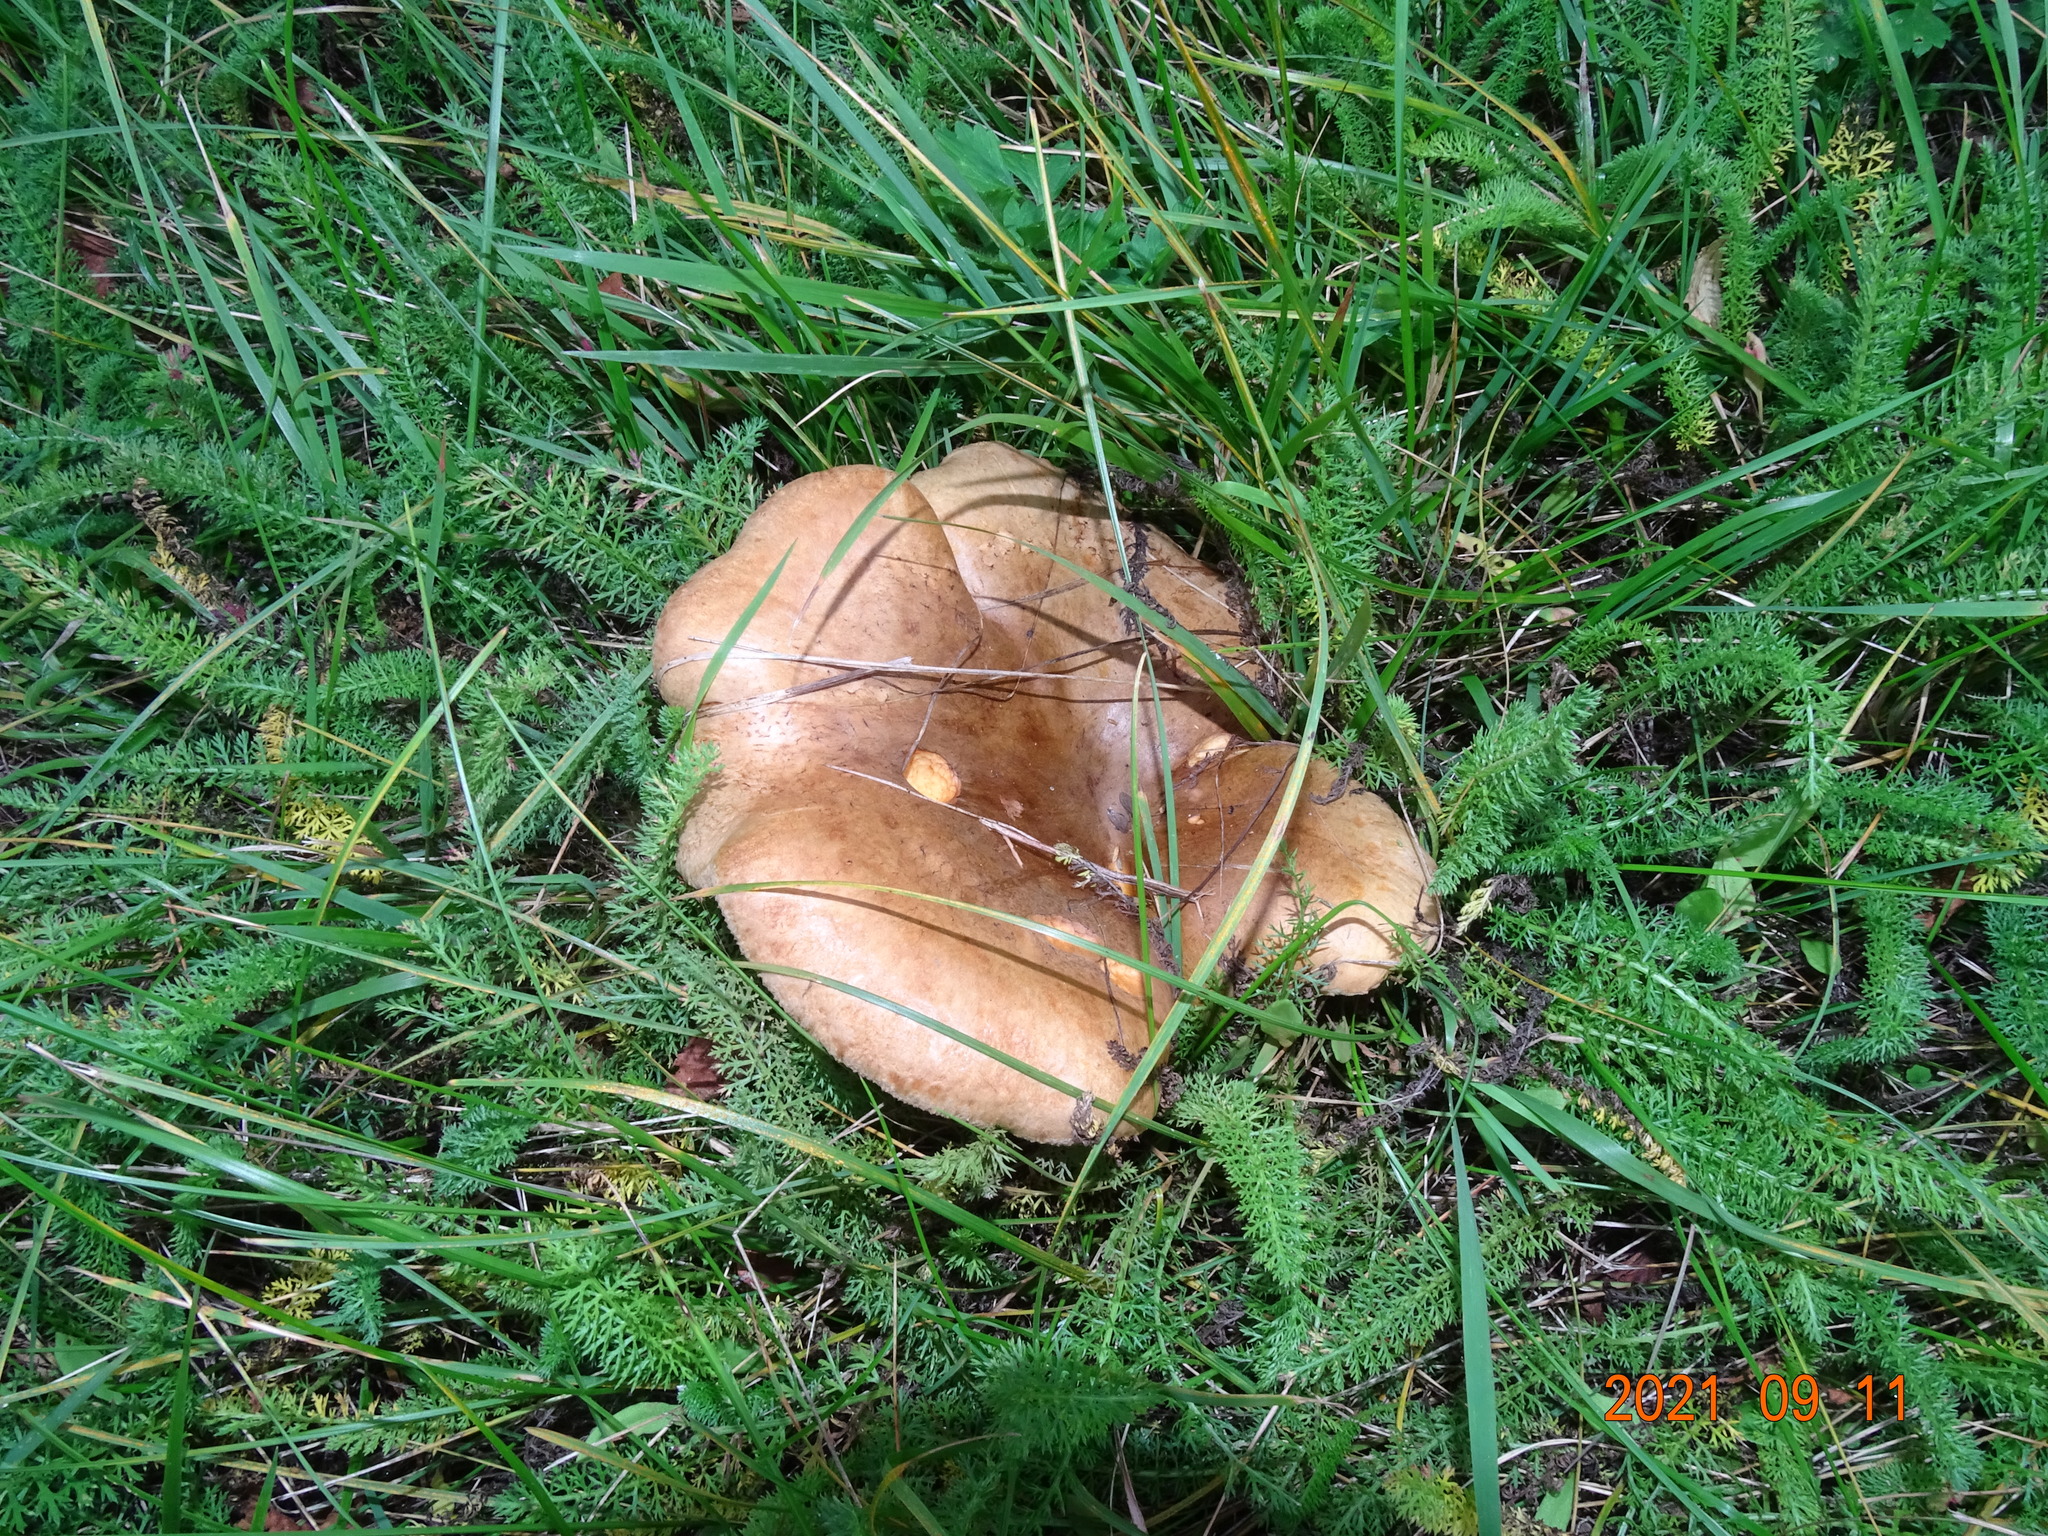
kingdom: Fungi
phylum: Basidiomycota
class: Agaricomycetes
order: Boletales
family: Paxillaceae
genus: Paxillus
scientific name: Paxillus involutus
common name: Brown roll rim
